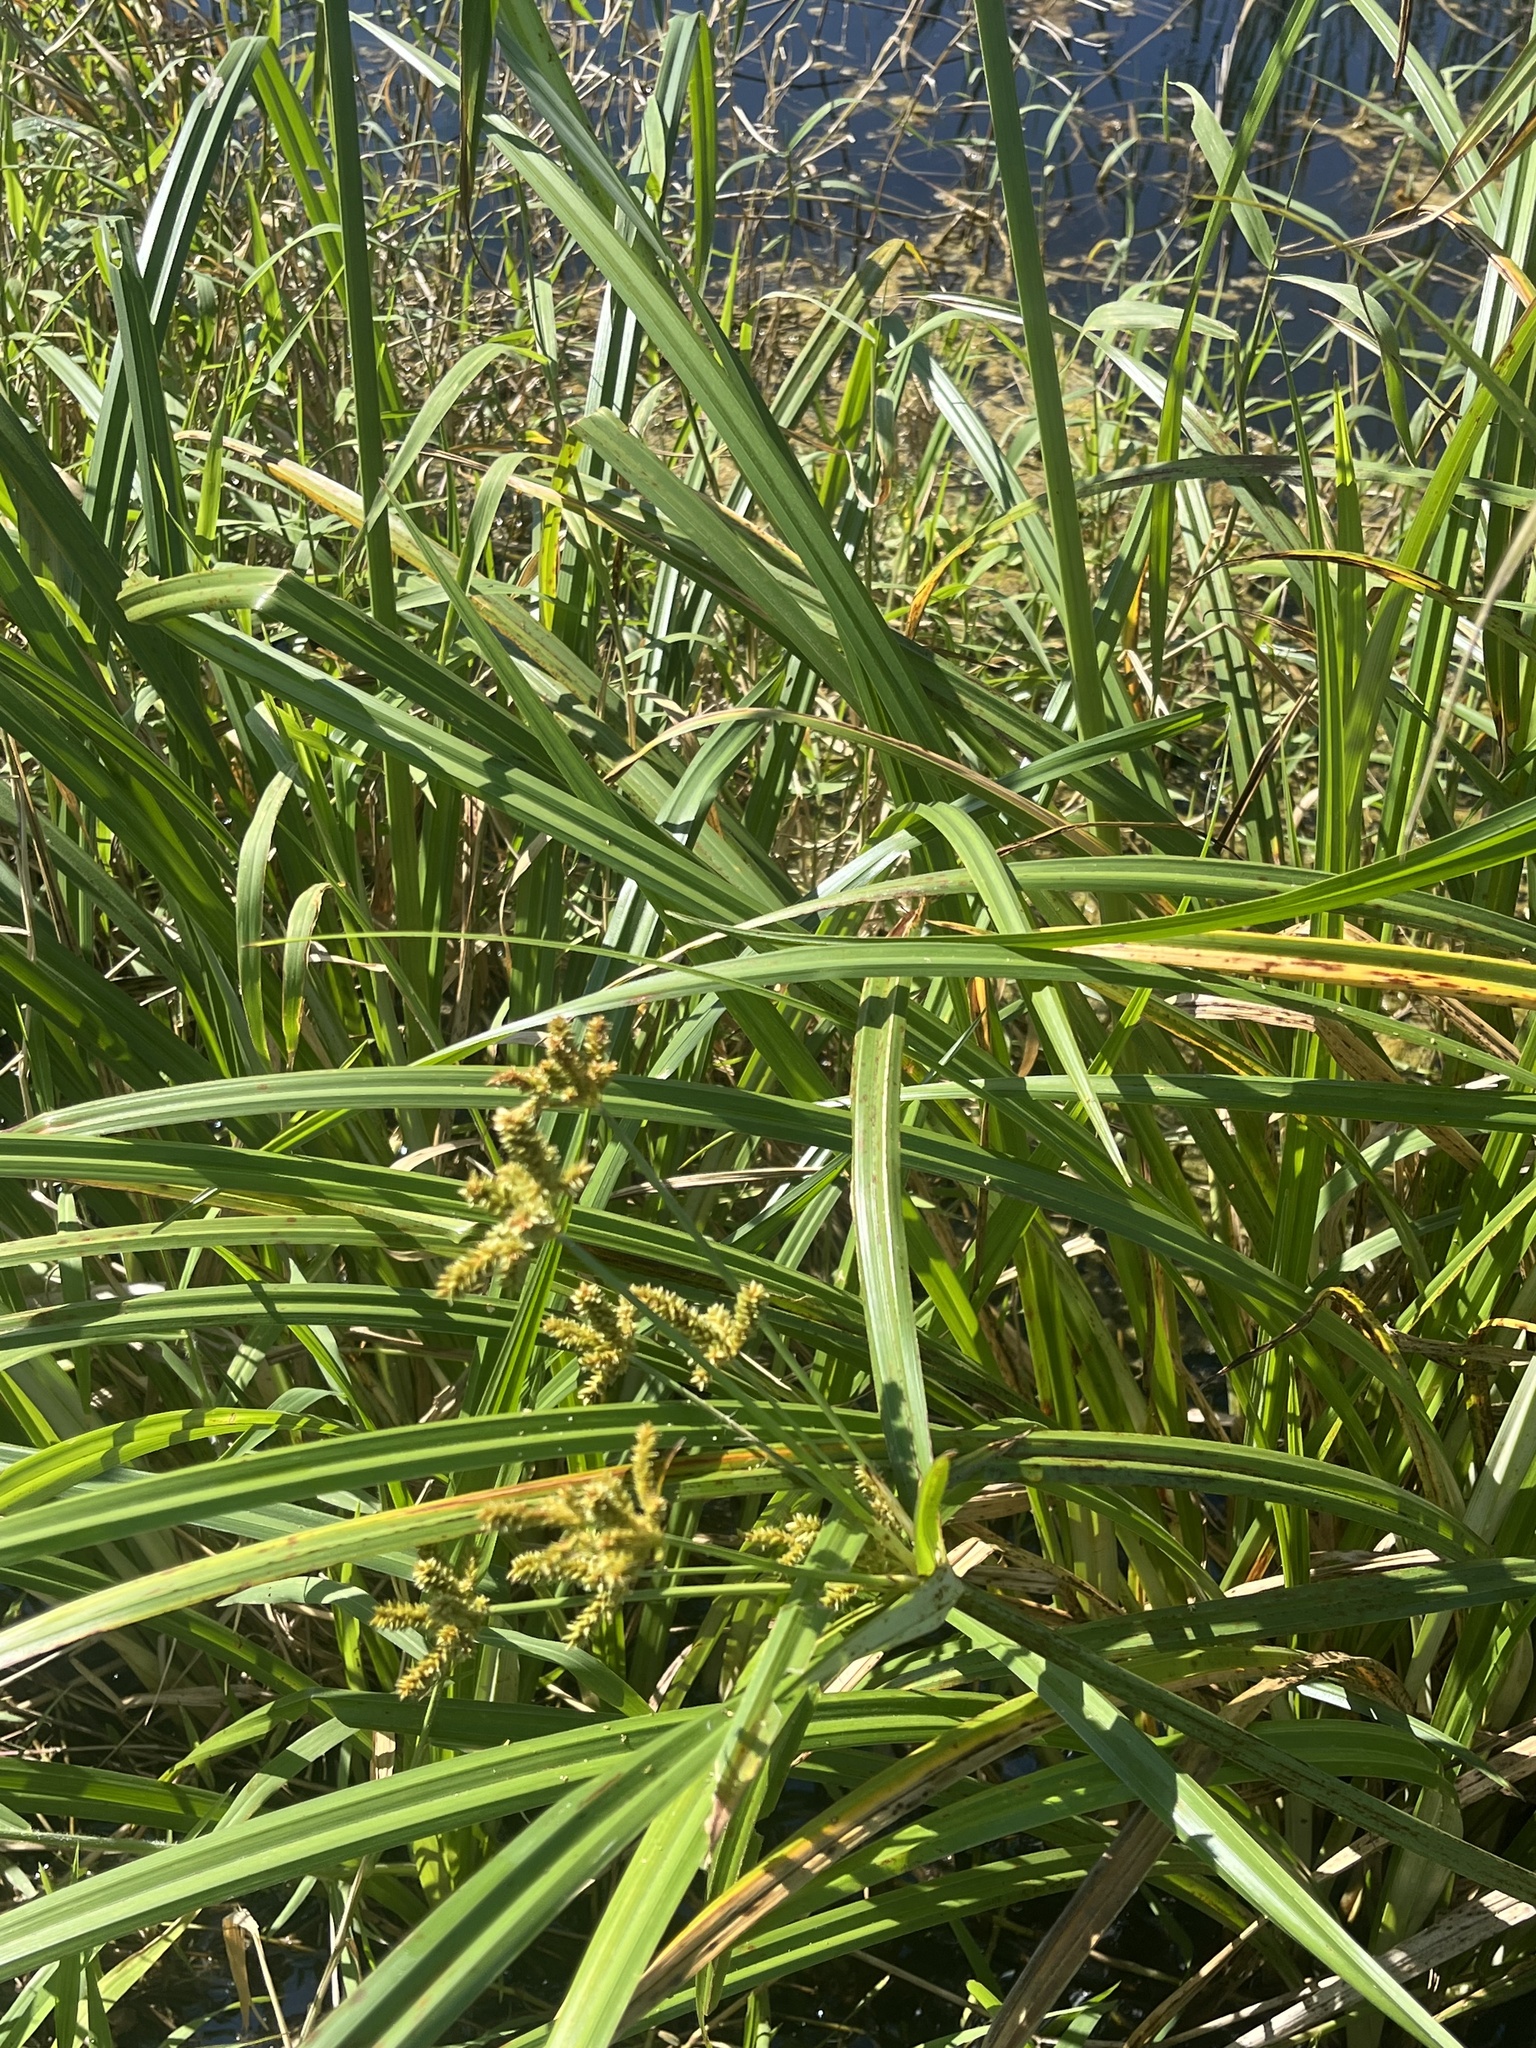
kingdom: Plantae
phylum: Tracheophyta
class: Liliopsida
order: Poales
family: Cyperaceae
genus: Cyperus
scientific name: Cyperus ligularis
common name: Swamp flat sedge
